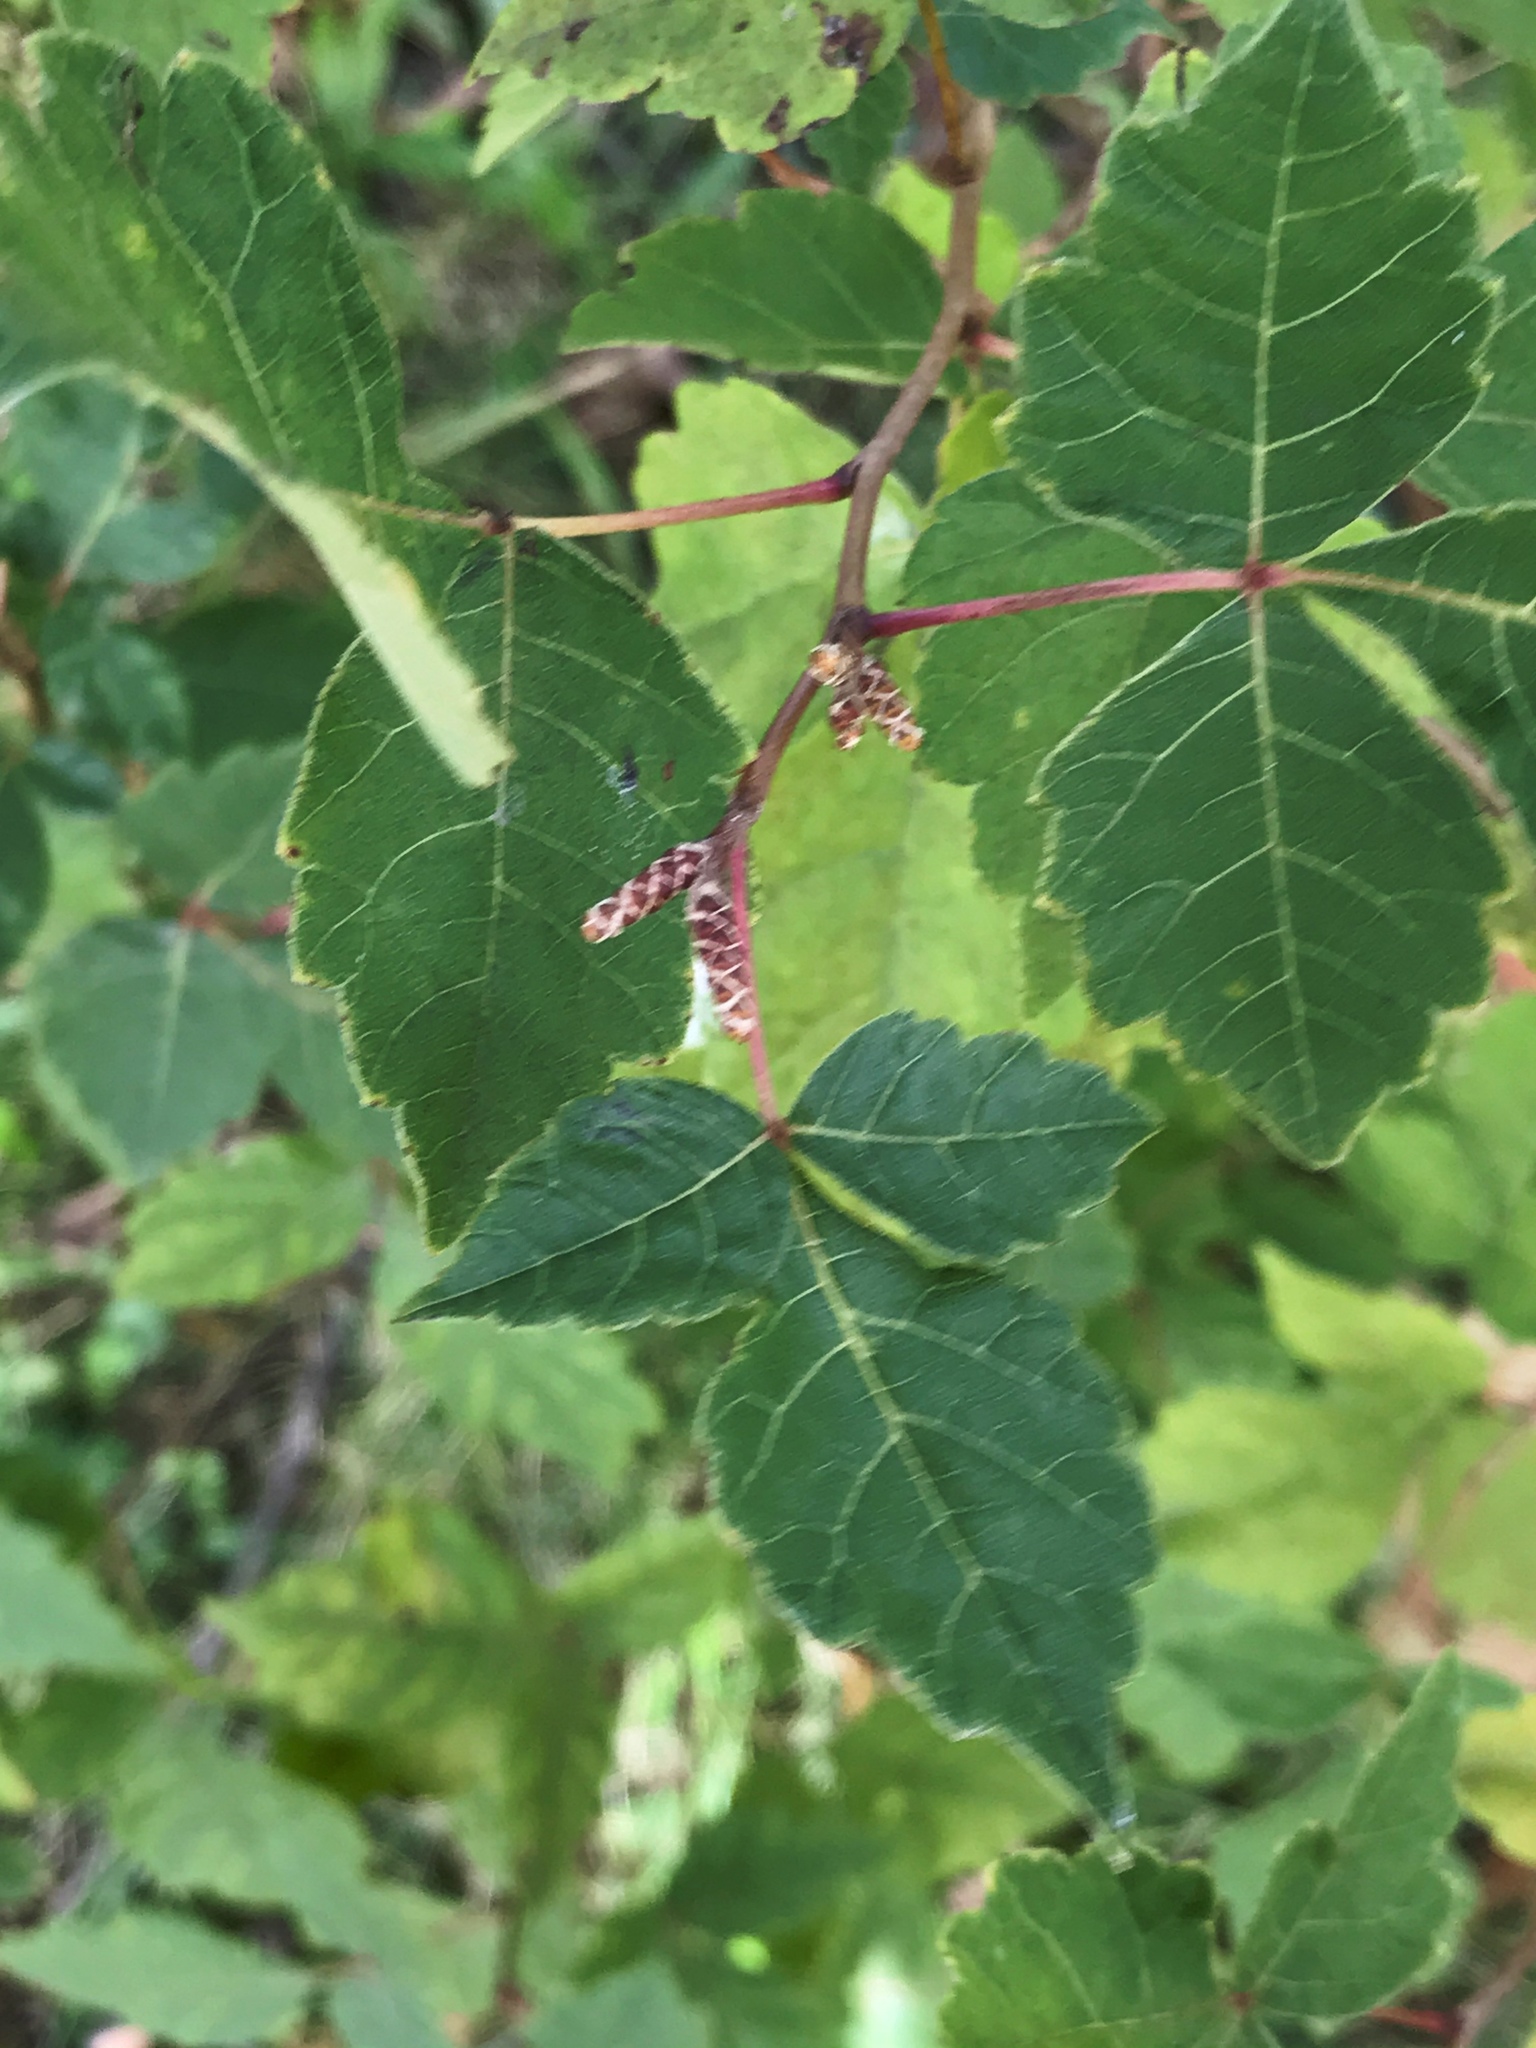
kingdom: Plantae
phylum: Tracheophyta
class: Magnoliopsida
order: Sapindales
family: Anacardiaceae
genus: Rhus
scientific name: Rhus aromatica
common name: Aromatic sumac
